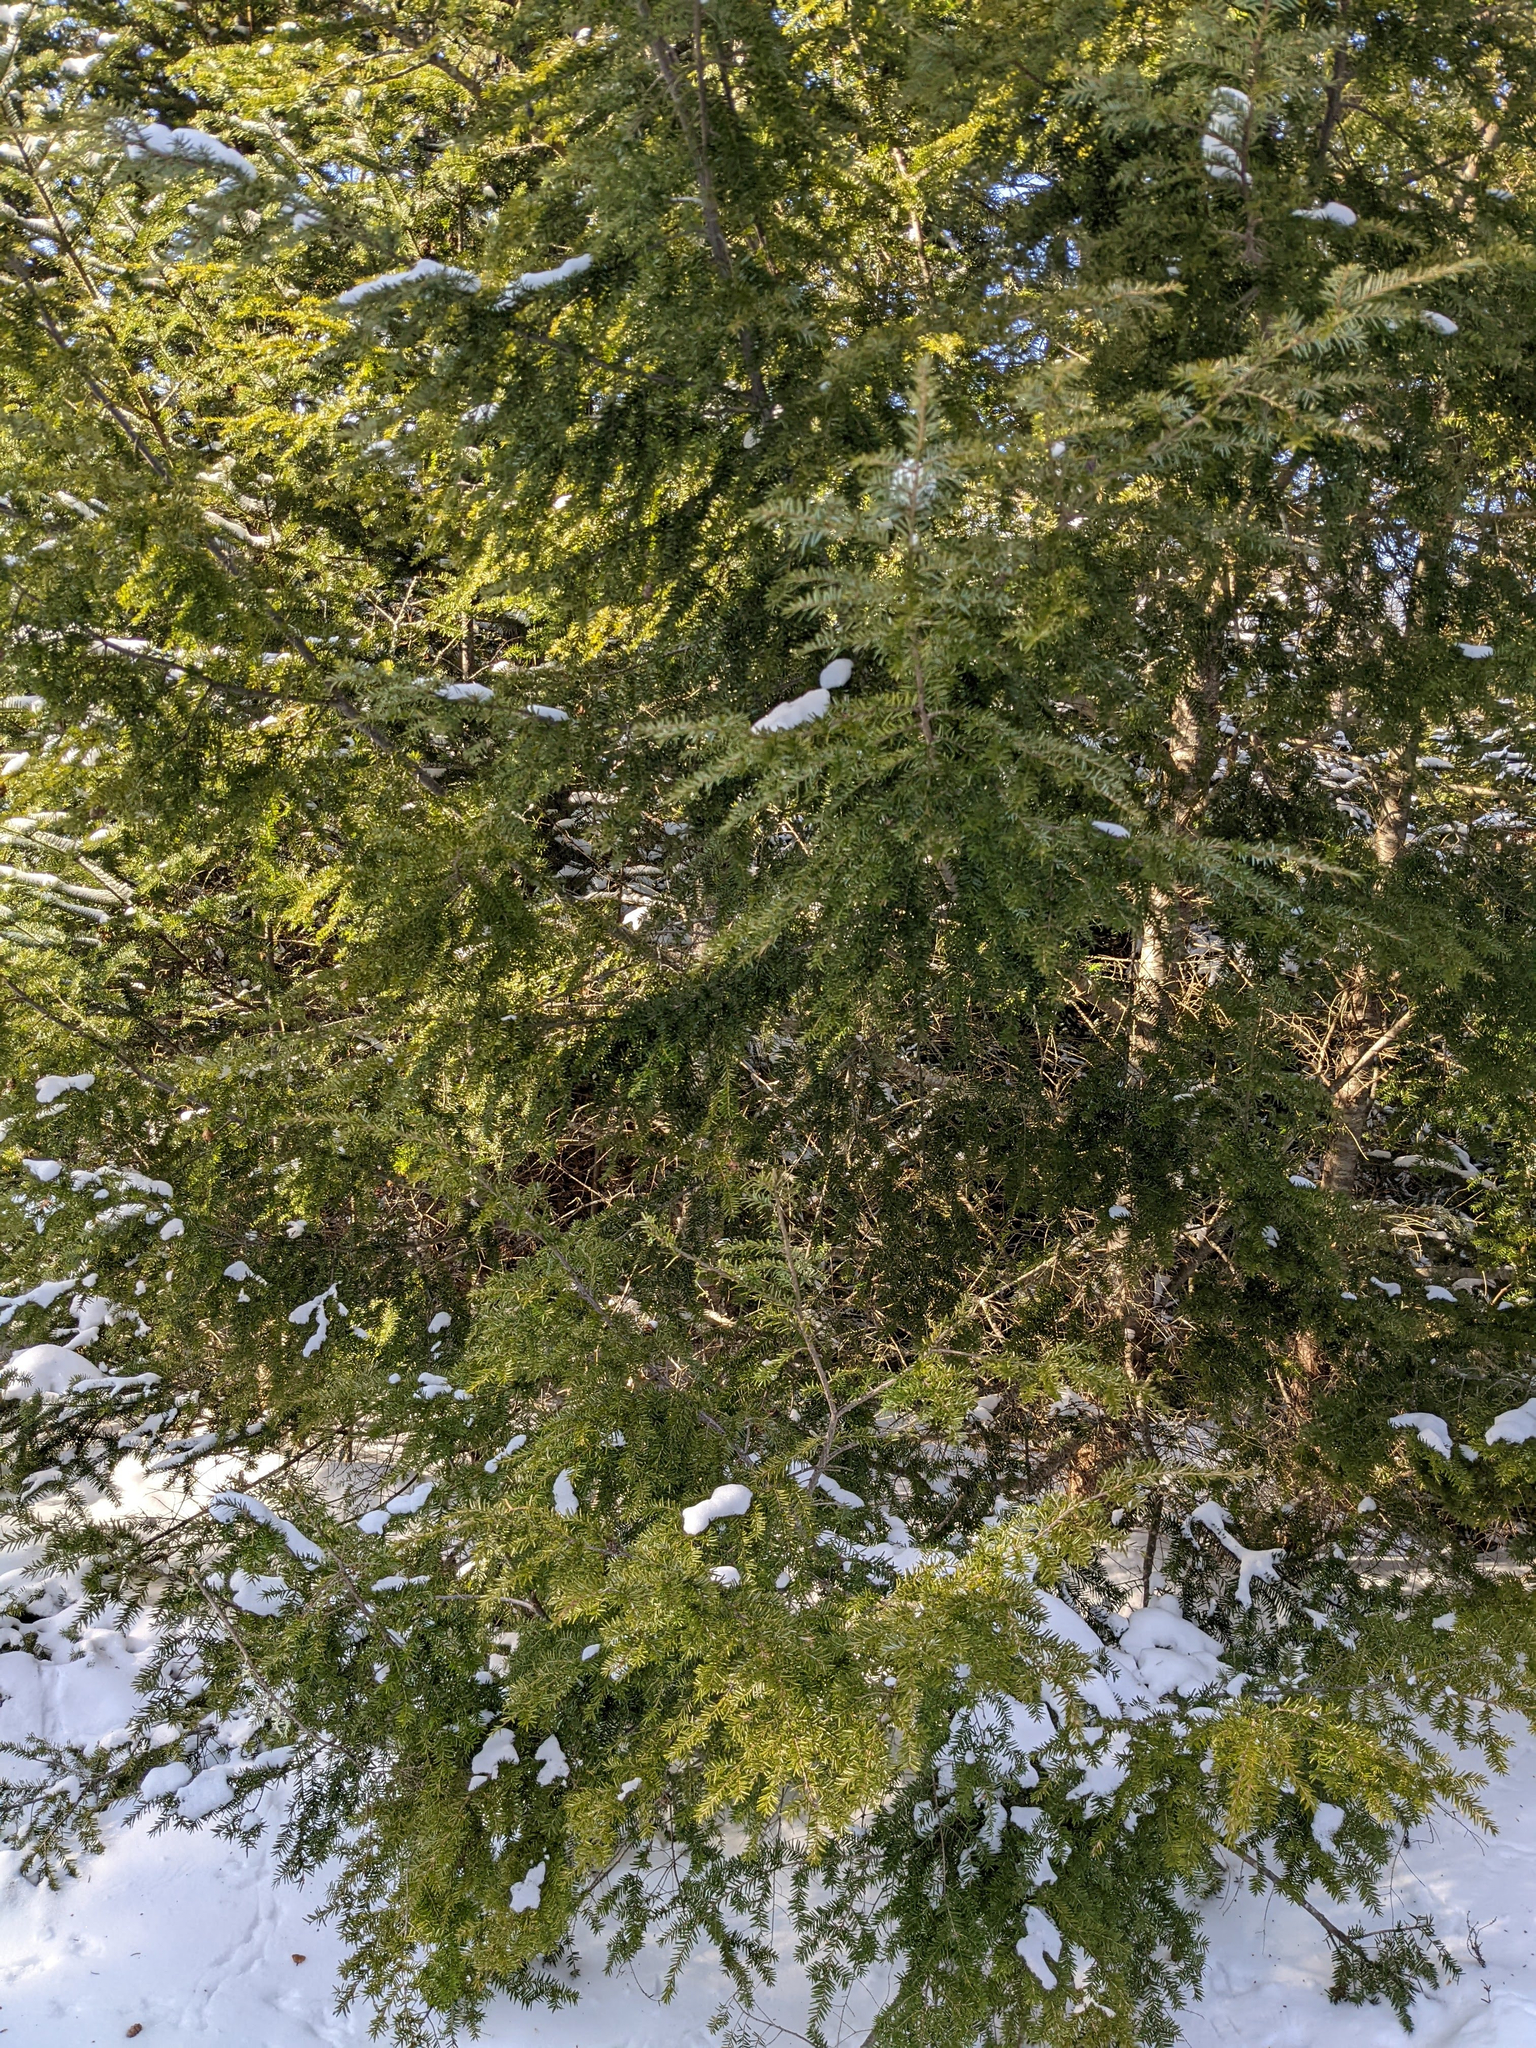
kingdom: Plantae
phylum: Tracheophyta
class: Pinopsida
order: Pinales
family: Pinaceae
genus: Tsuga
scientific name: Tsuga canadensis
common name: Eastern hemlock
